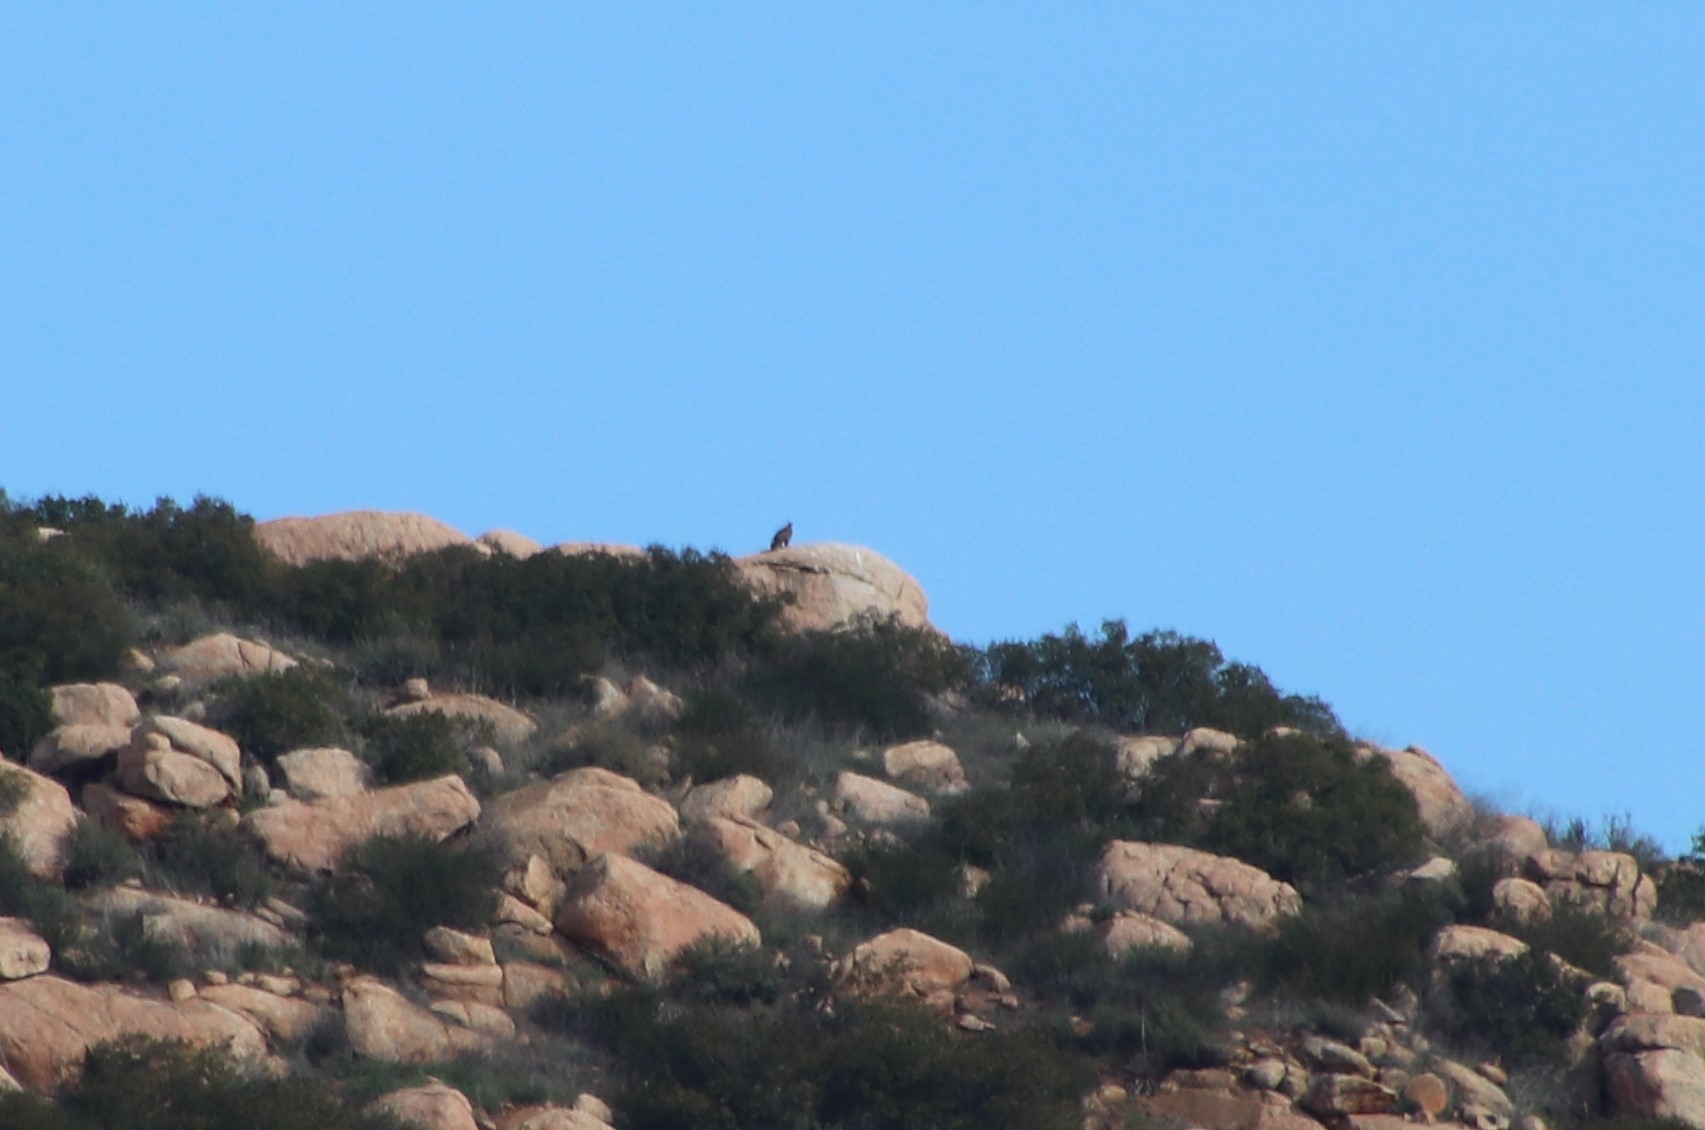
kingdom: Animalia
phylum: Chordata
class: Aves
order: Accipitriformes
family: Accipitridae
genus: Aquila
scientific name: Aquila chrysaetos
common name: Golden eagle
